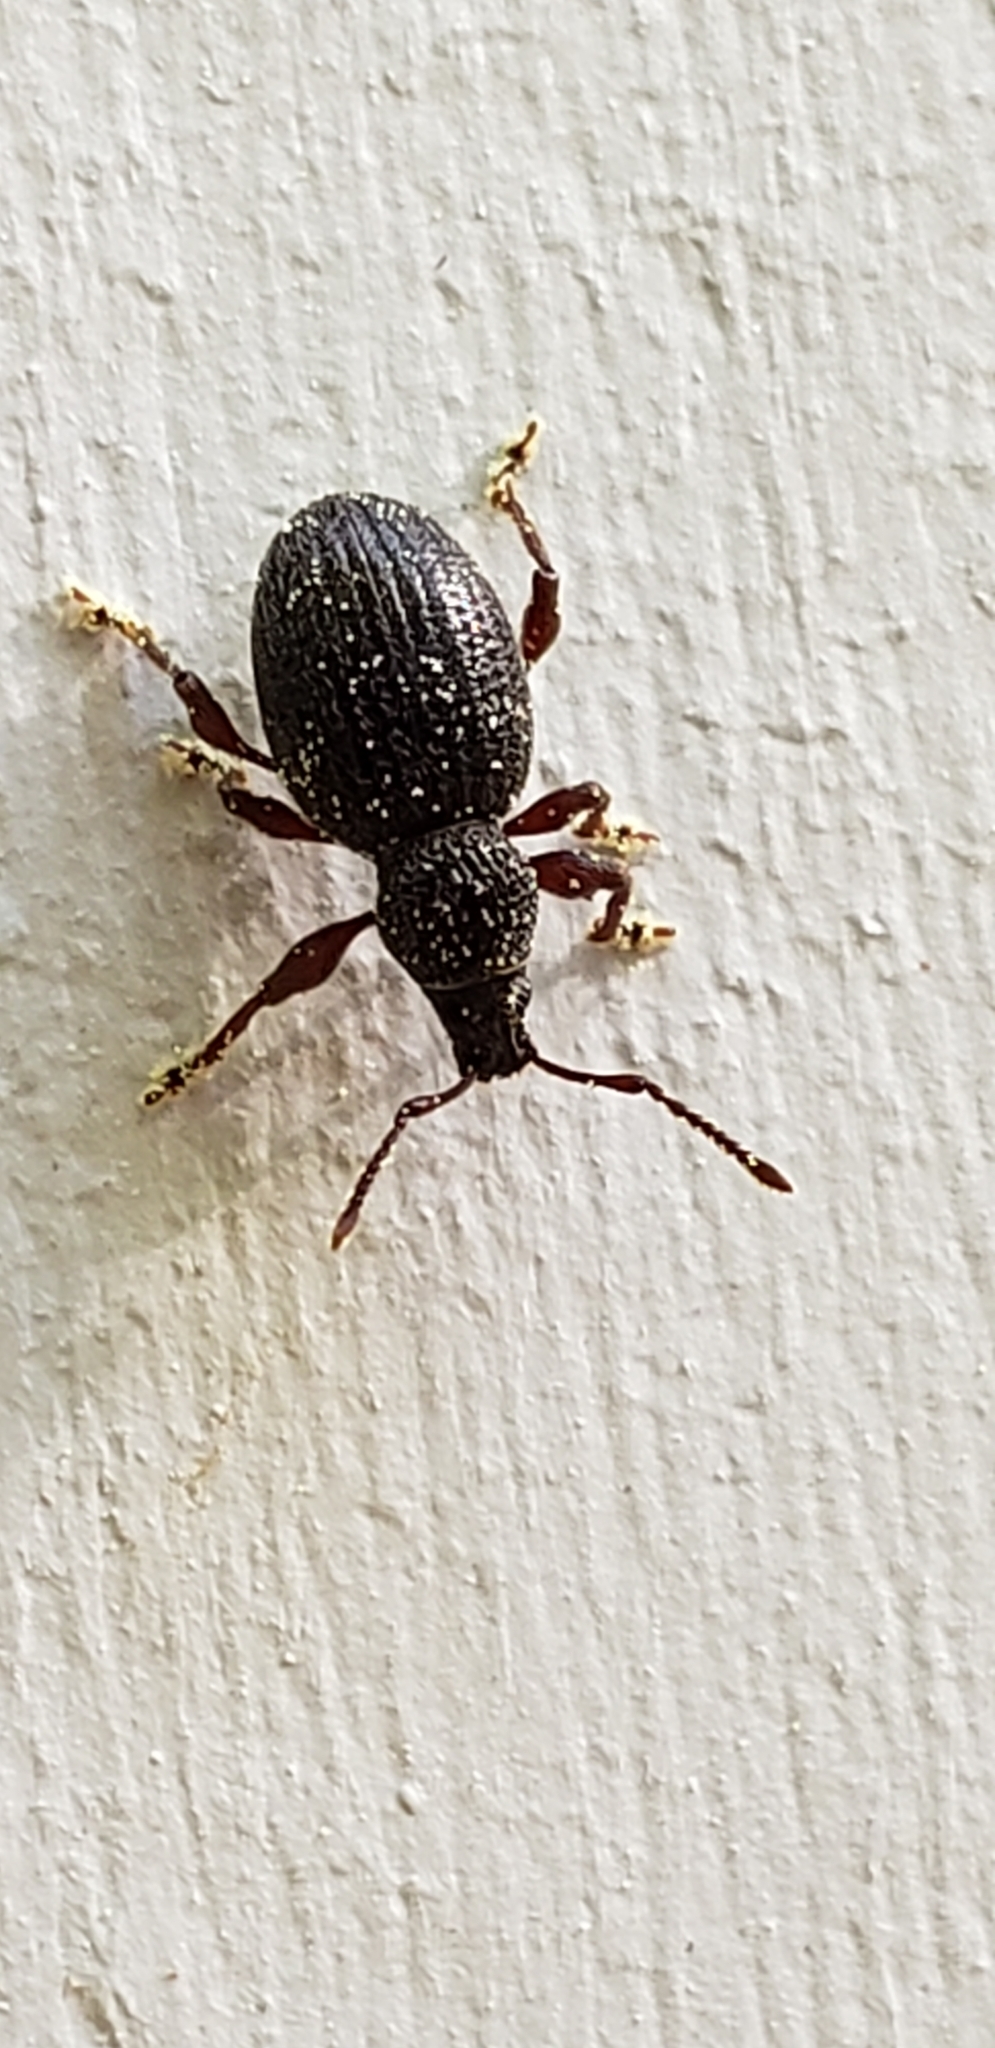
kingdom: Animalia
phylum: Arthropoda
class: Insecta
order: Coleoptera
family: Curculionidae
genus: Otiorhynchus
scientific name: Otiorhynchus ovatus
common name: Strawberry root weevil
